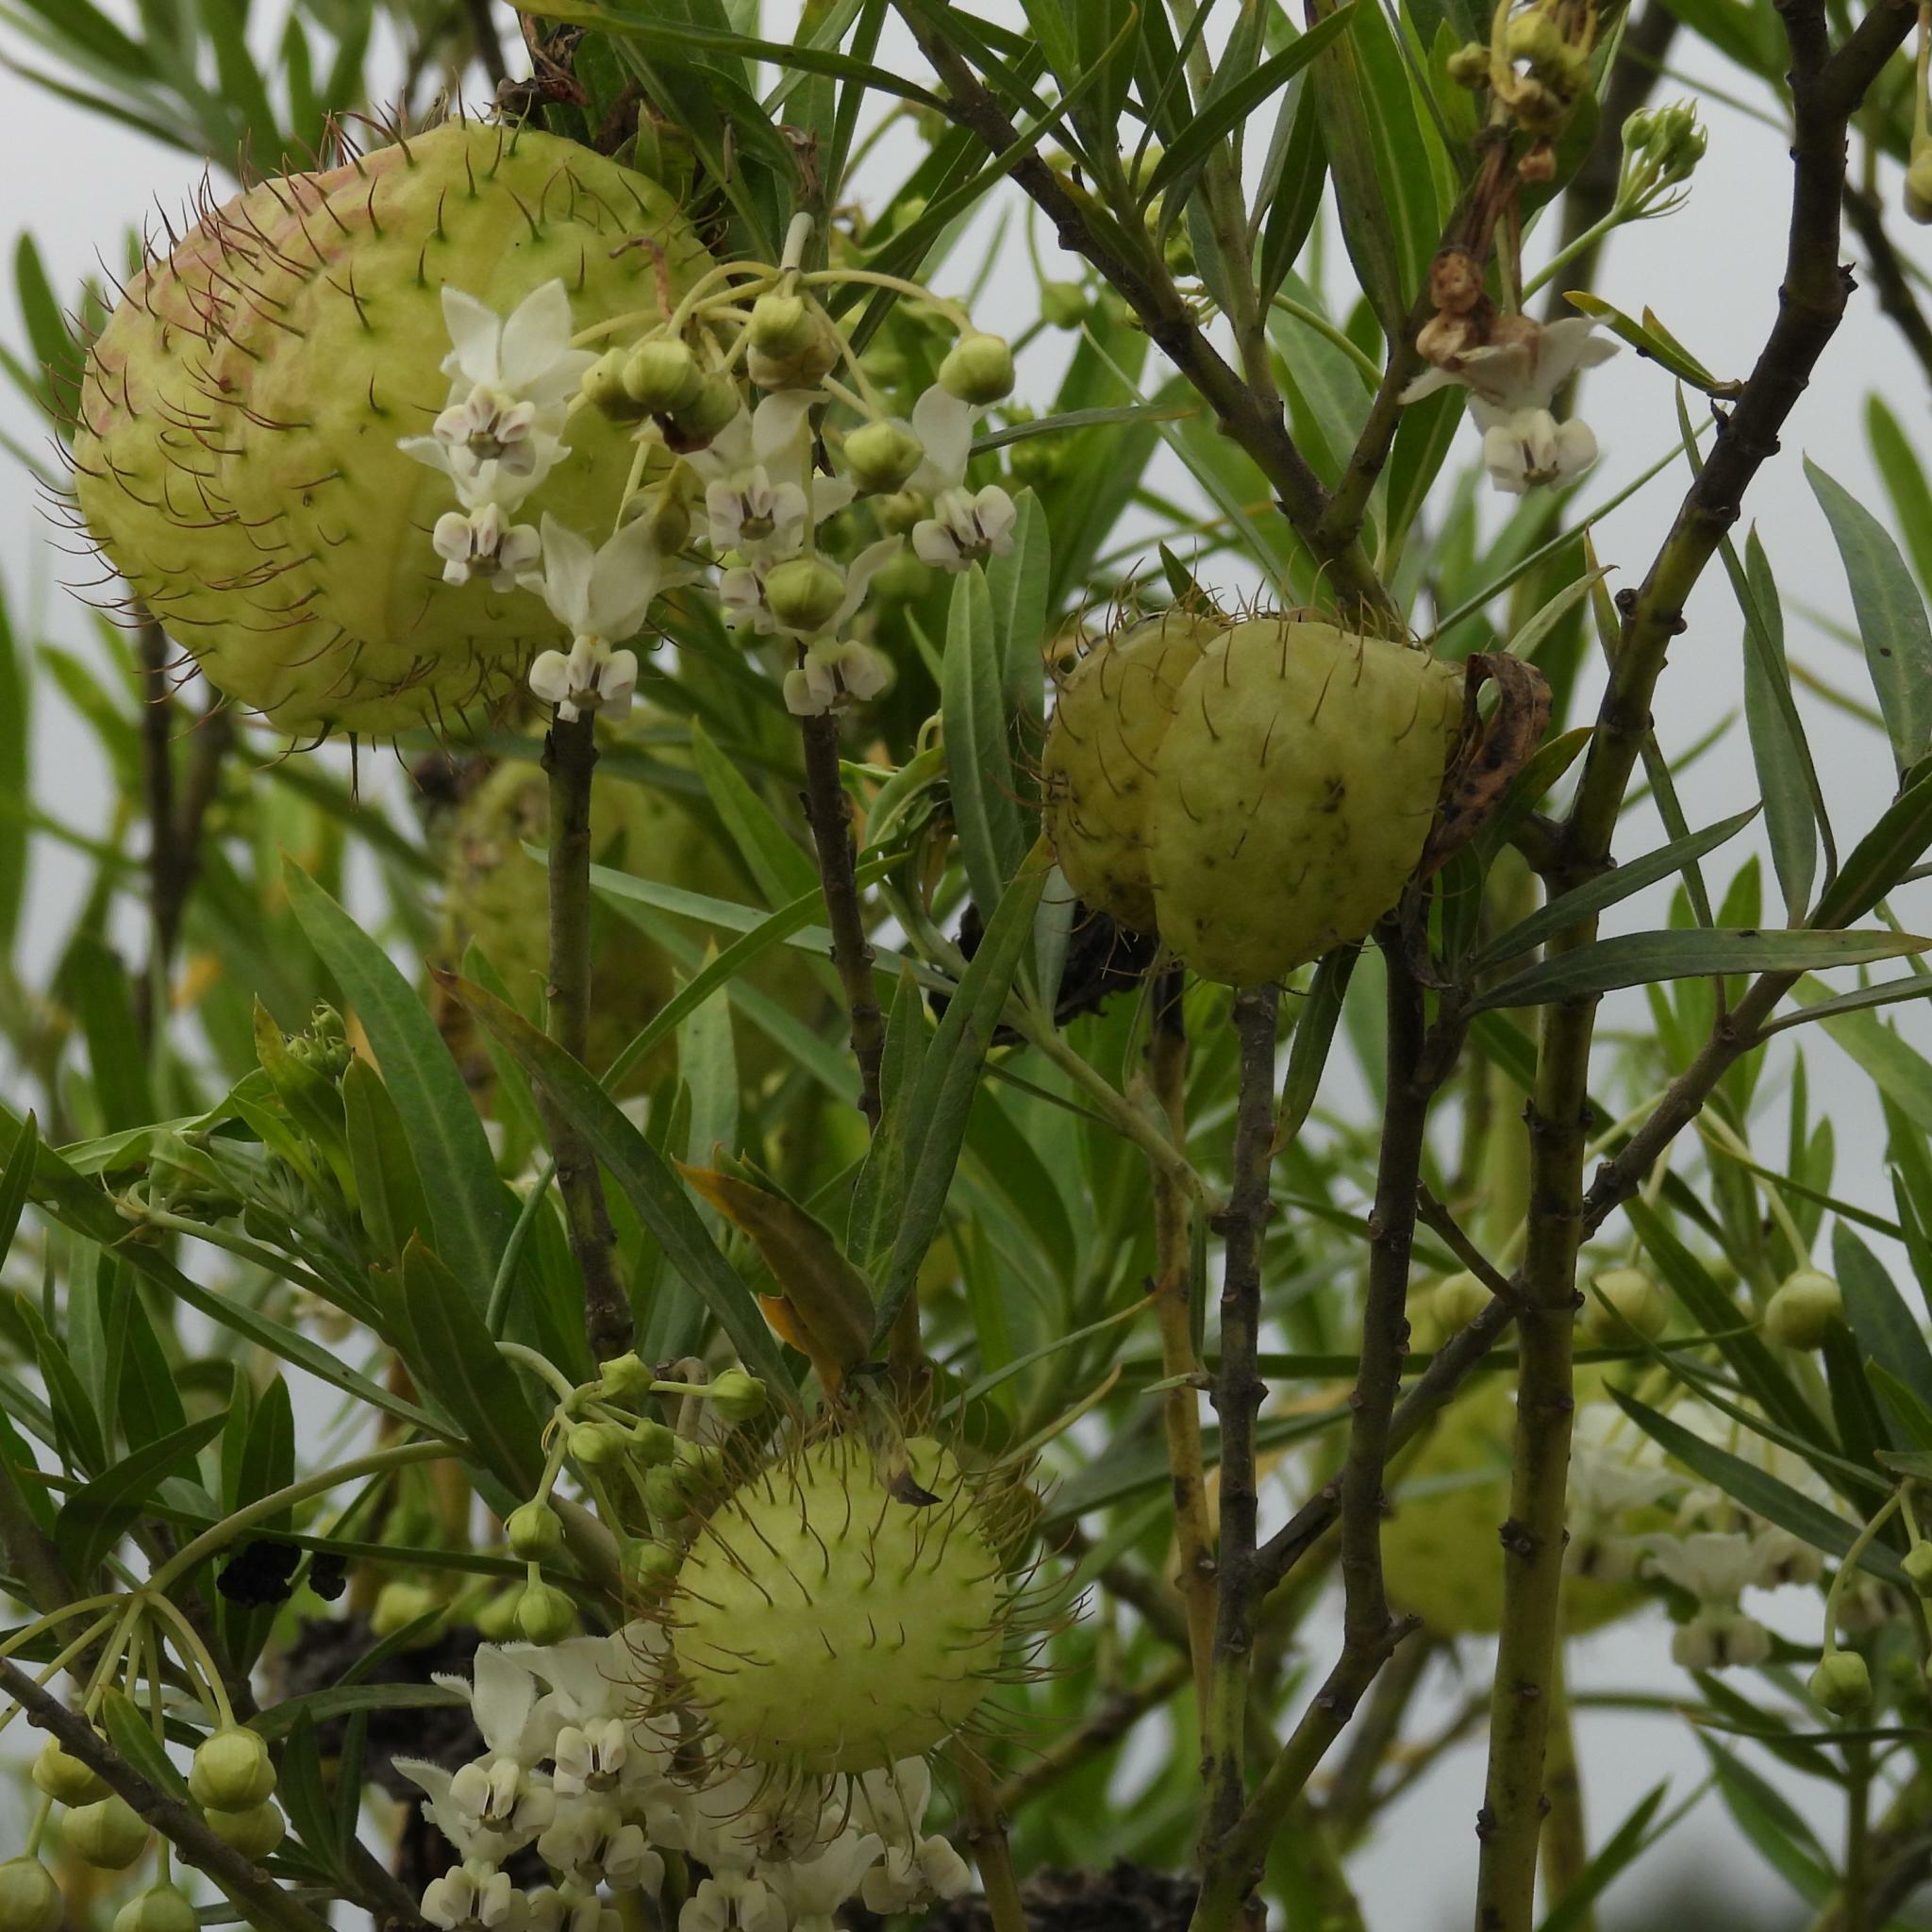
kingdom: Plantae
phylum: Tracheophyta
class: Magnoliopsida
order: Gentianales
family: Apocynaceae
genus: Gomphocarpus
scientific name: Gomphocarpus physocarpus
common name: Balloon cotton bush
